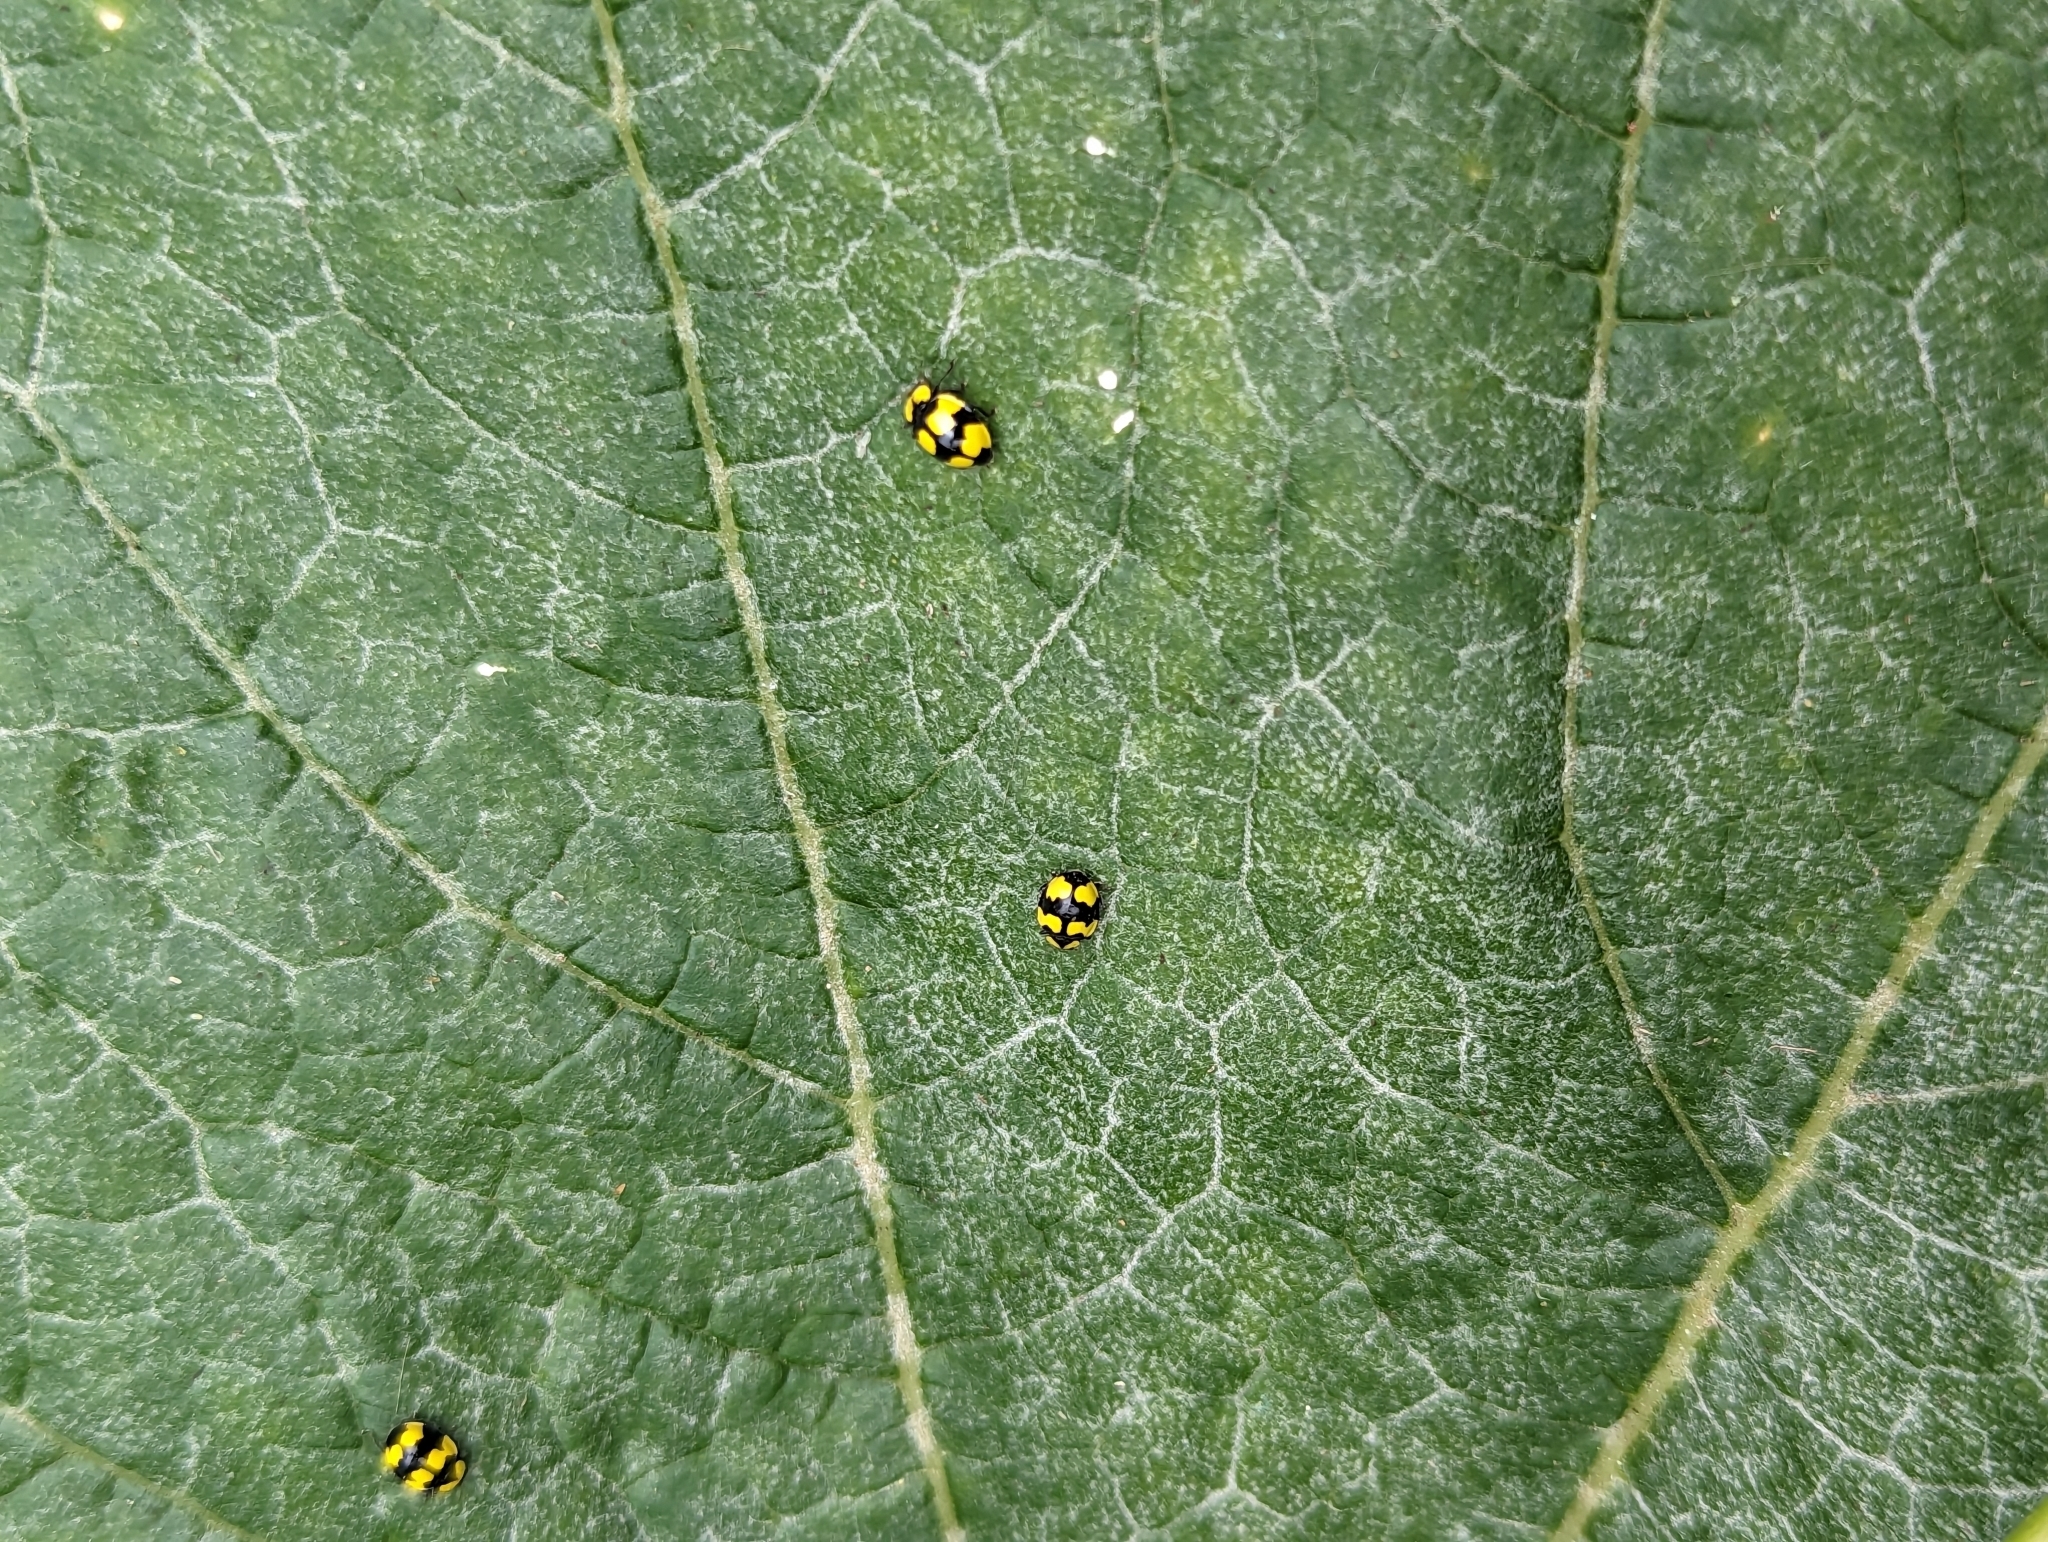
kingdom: Animalia
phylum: Arthropoda
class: Insecta
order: Coleoptera
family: Coccinellidae
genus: Illeis
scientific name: Illeis galbula
